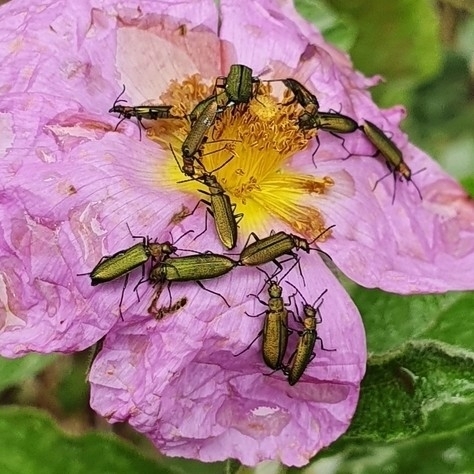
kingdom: Animalia
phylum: Arthropoda
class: Insecta
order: Coleoptera
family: Stenotrachelidae
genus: Stenotrachelus
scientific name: Stenotrachelus aeneus
